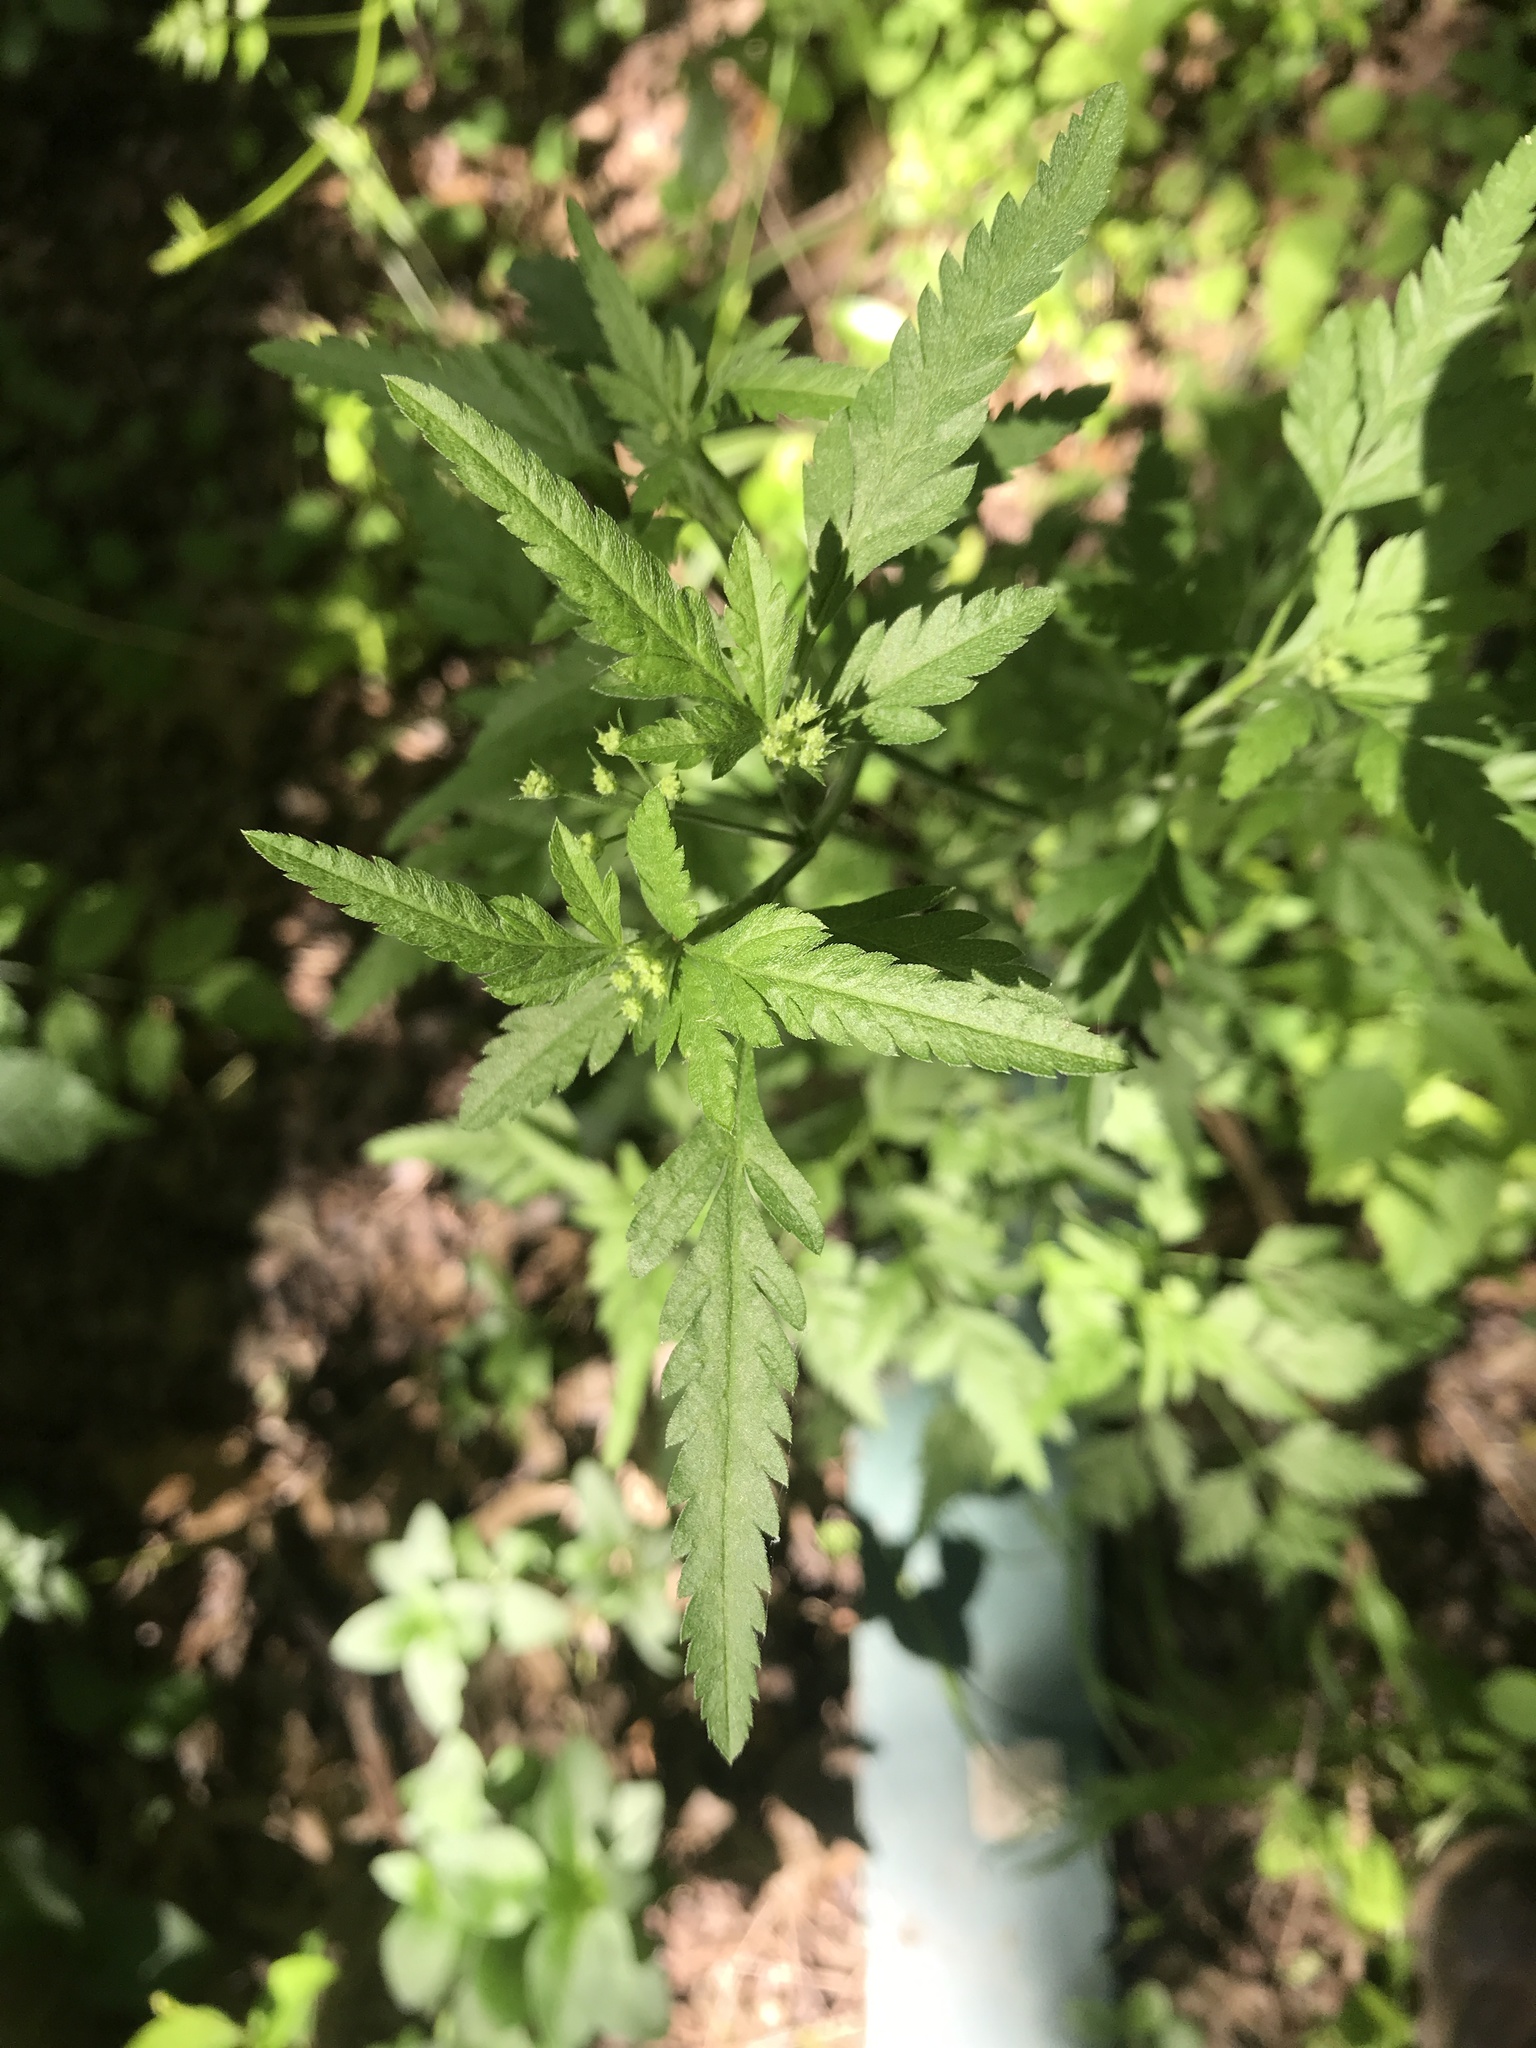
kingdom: Plantae
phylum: Tracheophyta
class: Magnoliopsida
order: Apiales
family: Apiaceae
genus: Torilis
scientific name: Torilis arvensis
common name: Spreading hedge-parsley
